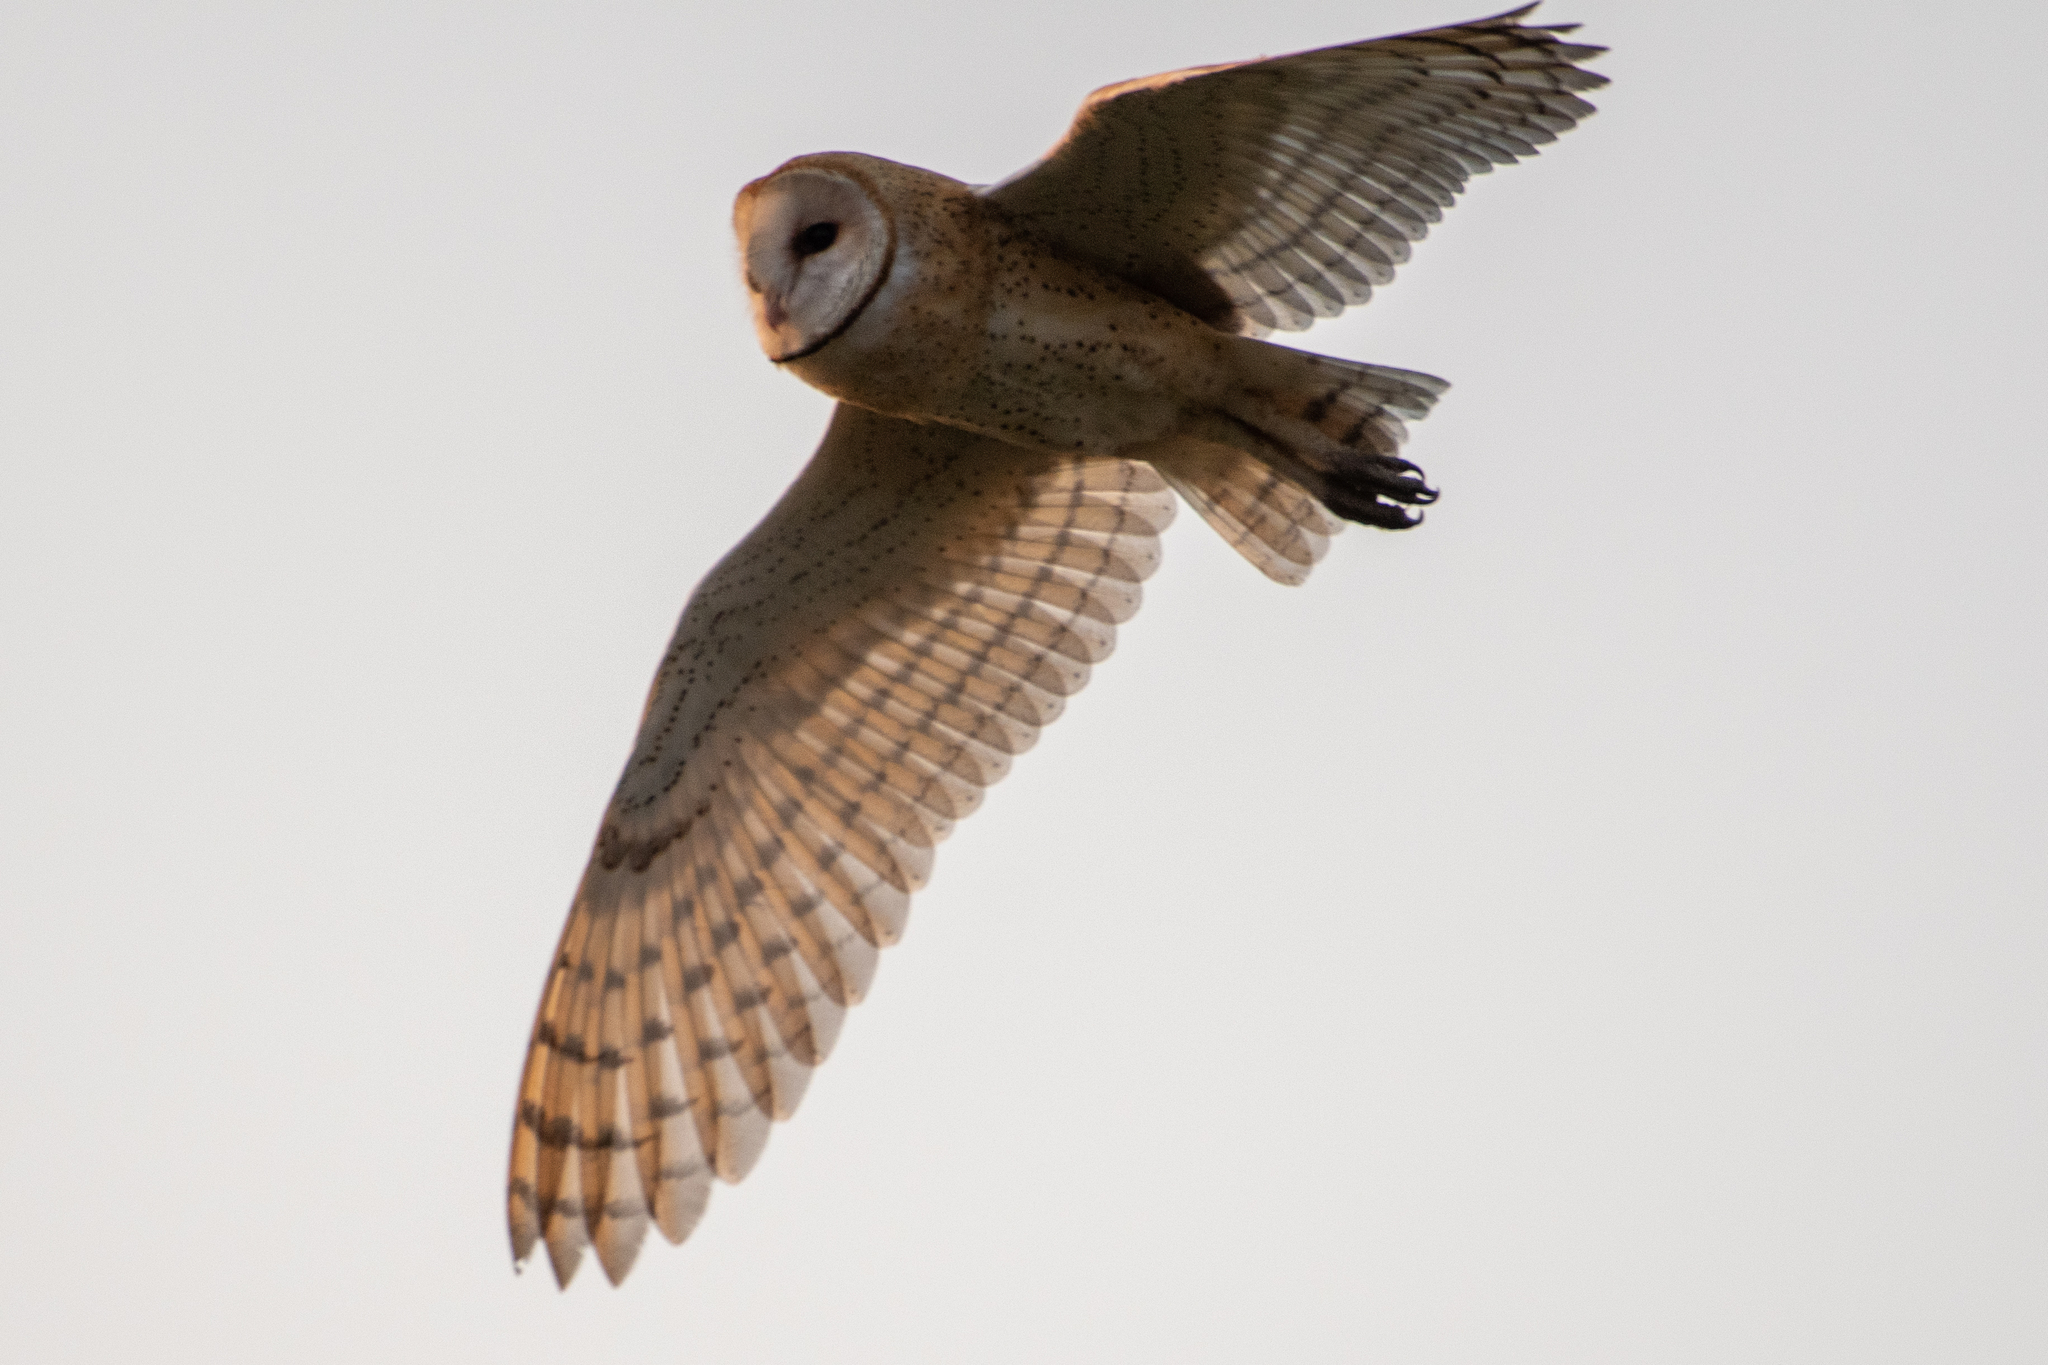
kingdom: Animalia
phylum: Chordata
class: Aves
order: Strigiformes
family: Tytonidae
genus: Tyto
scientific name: Tyto alba
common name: Barn owl
